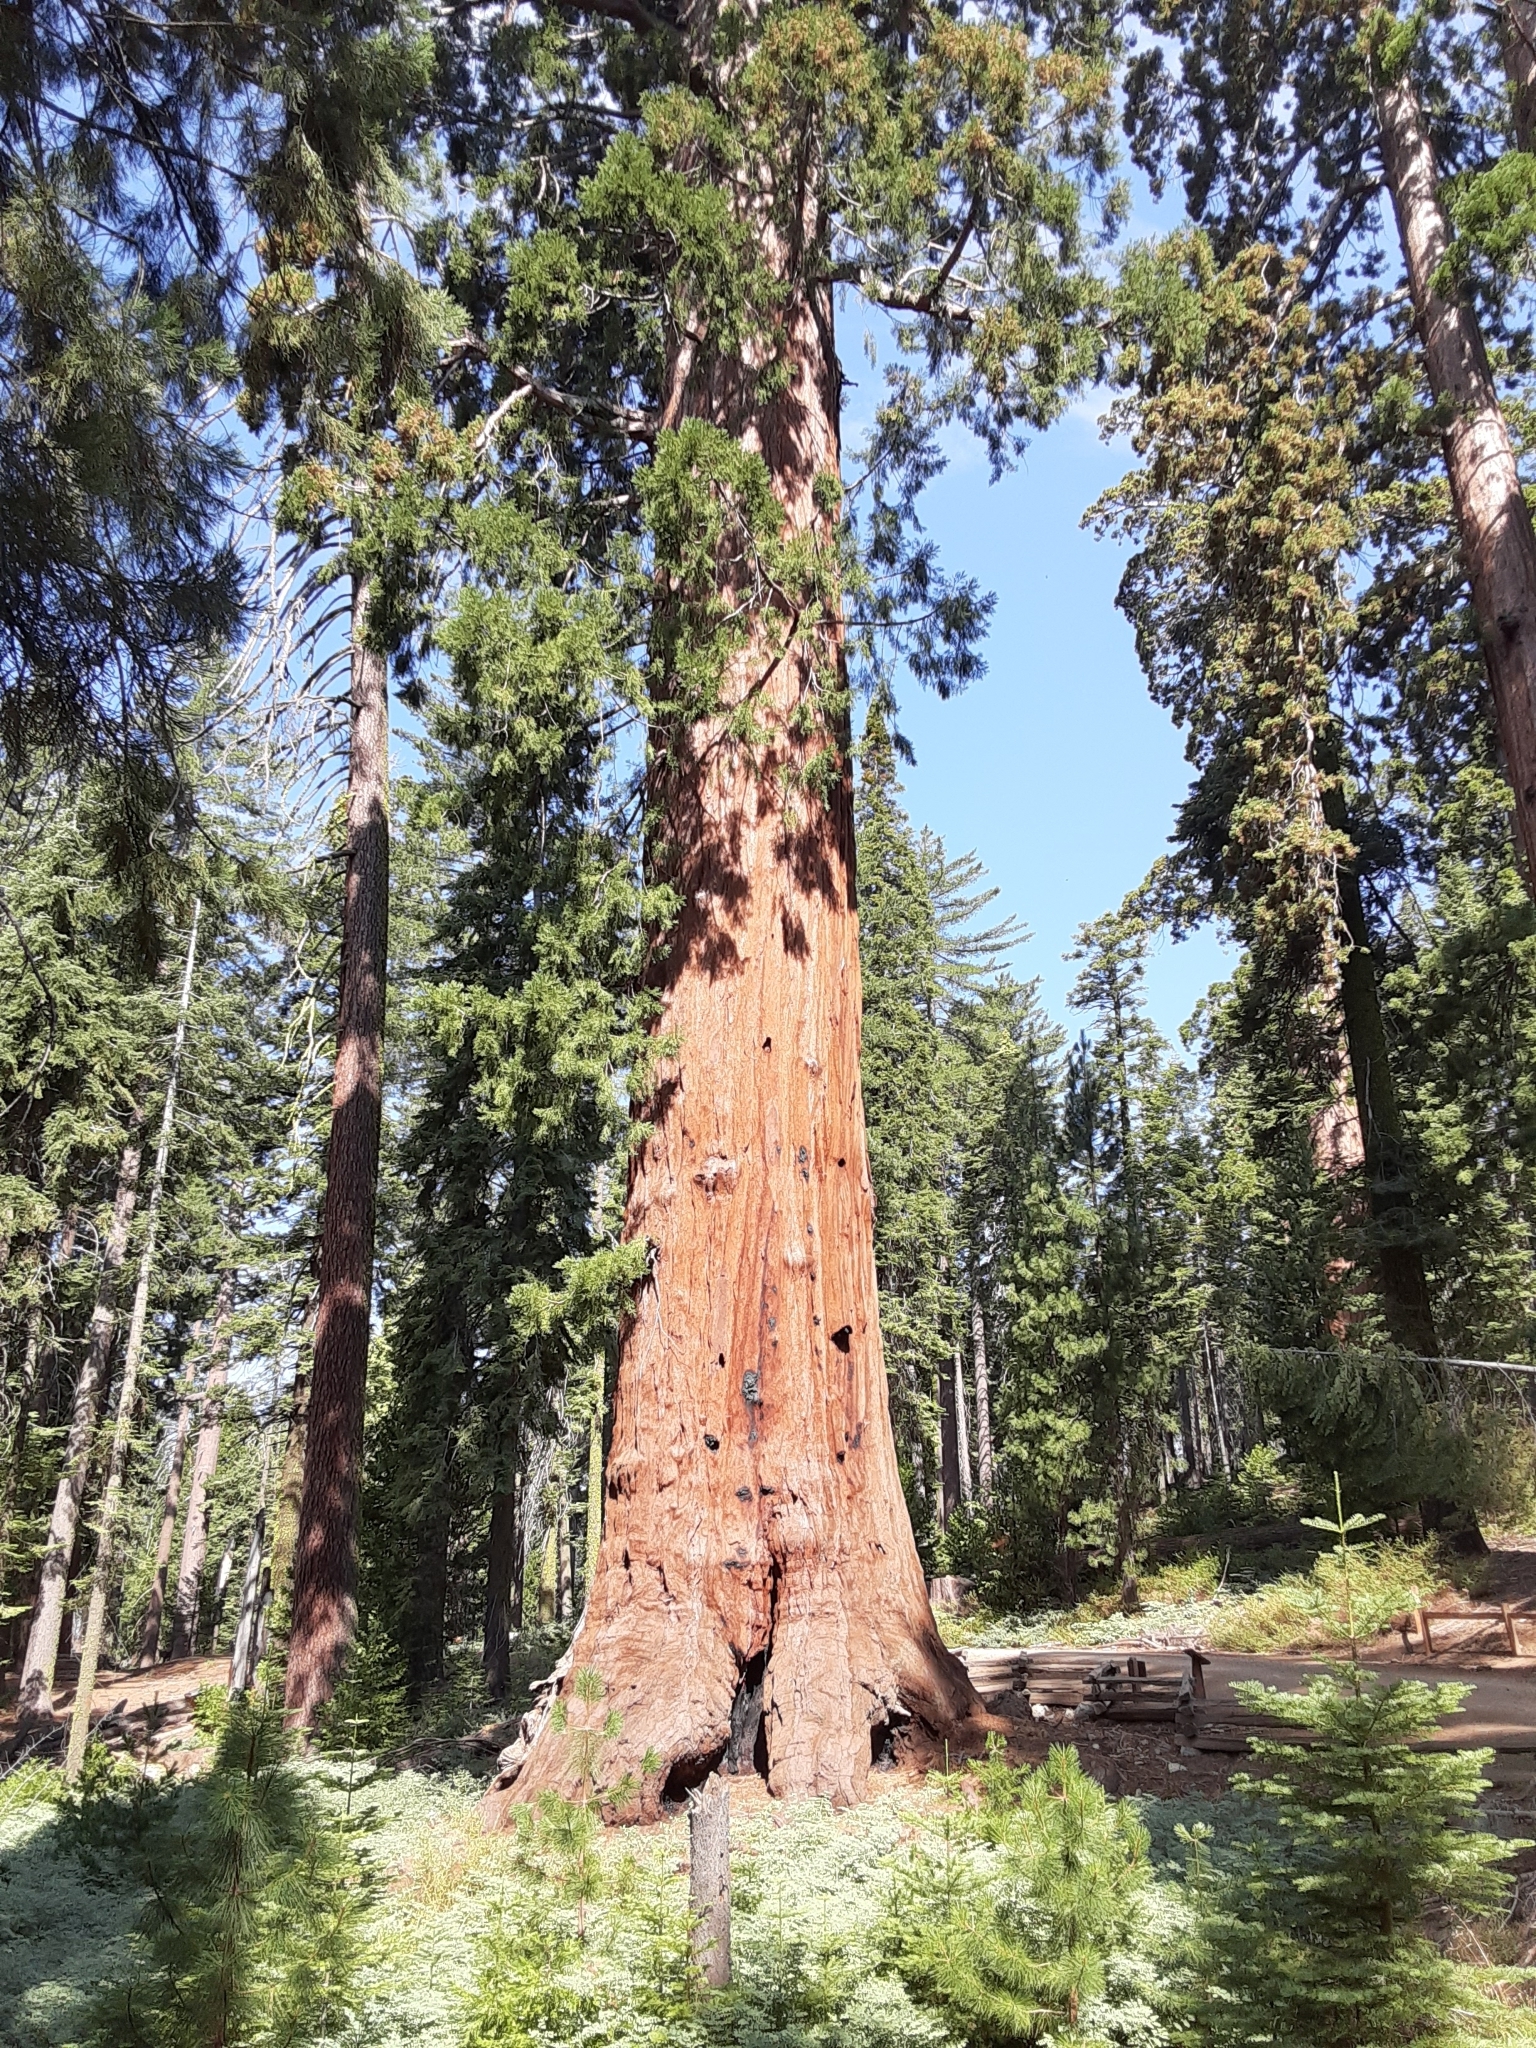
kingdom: Plantae
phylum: Tracheophyta
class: Pinopsida
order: Pinales
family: Cupressaceae
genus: Sequoiadendron
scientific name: Sequoiadendron giganteum
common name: Wellingtonia
